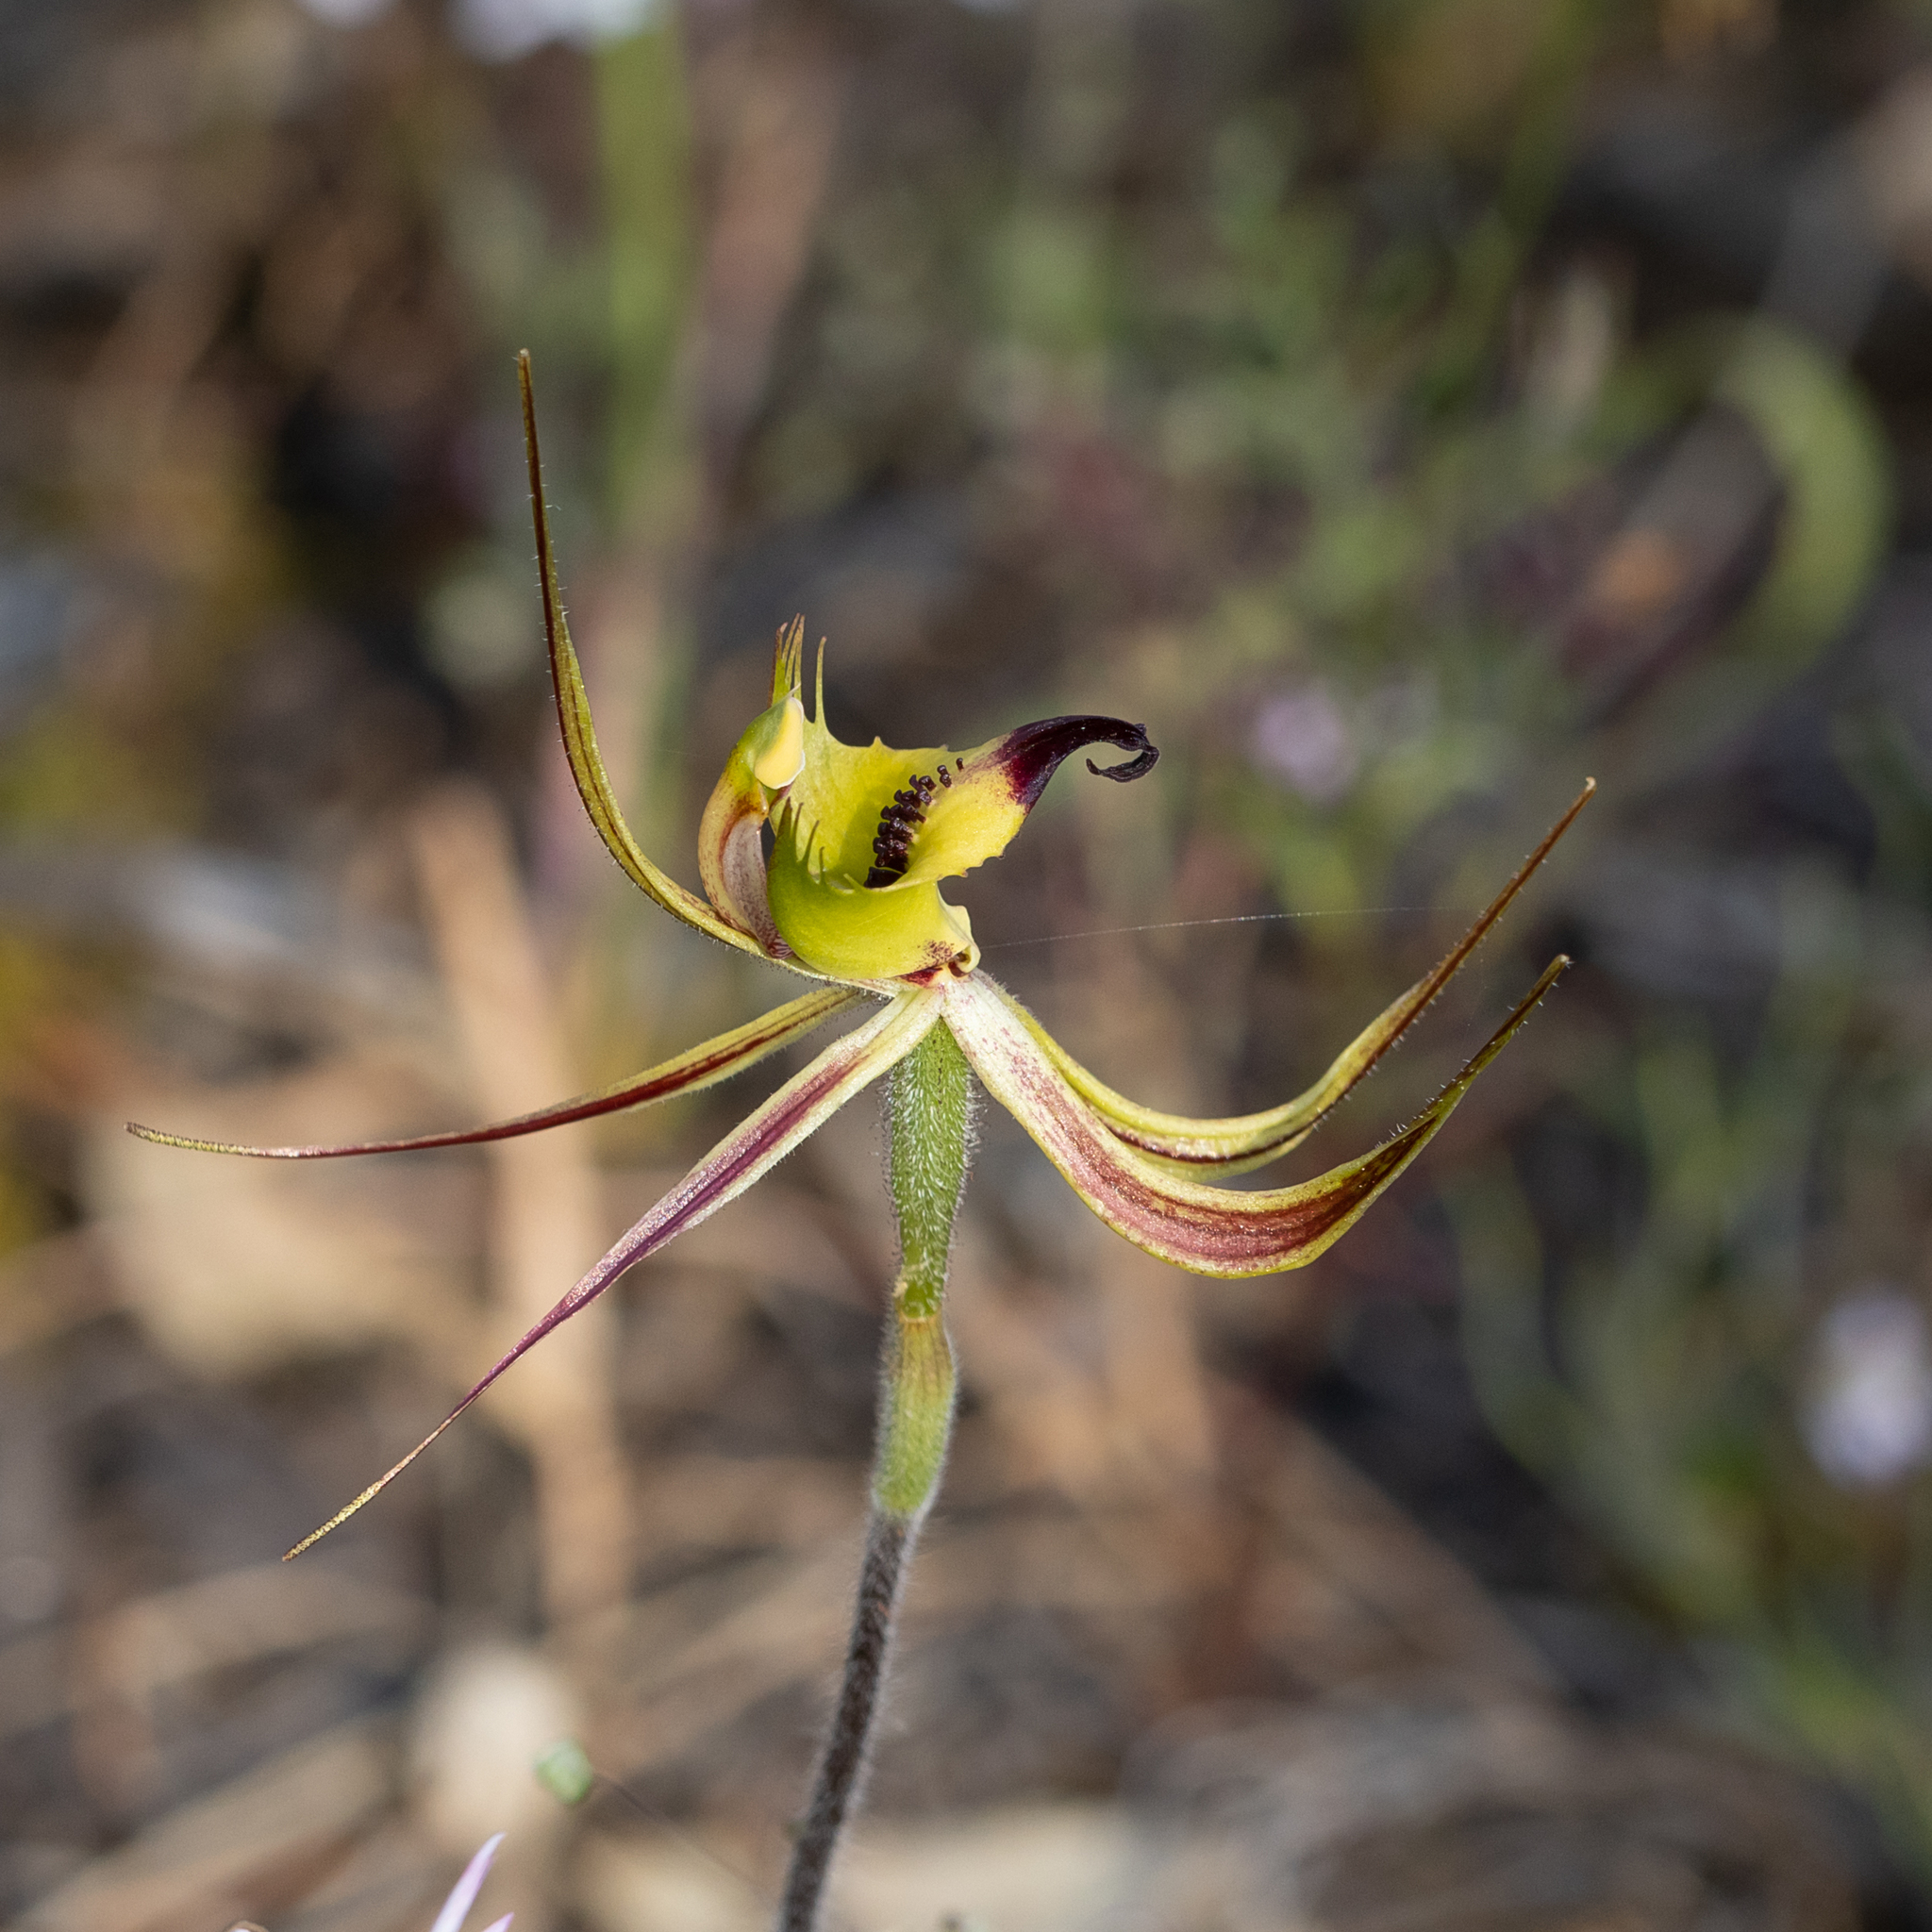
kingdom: Plantae
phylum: Tracheophyta
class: Liliopsida
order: Asparagales
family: Orchidaceae
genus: Caladenia
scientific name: Caladenia falcata
